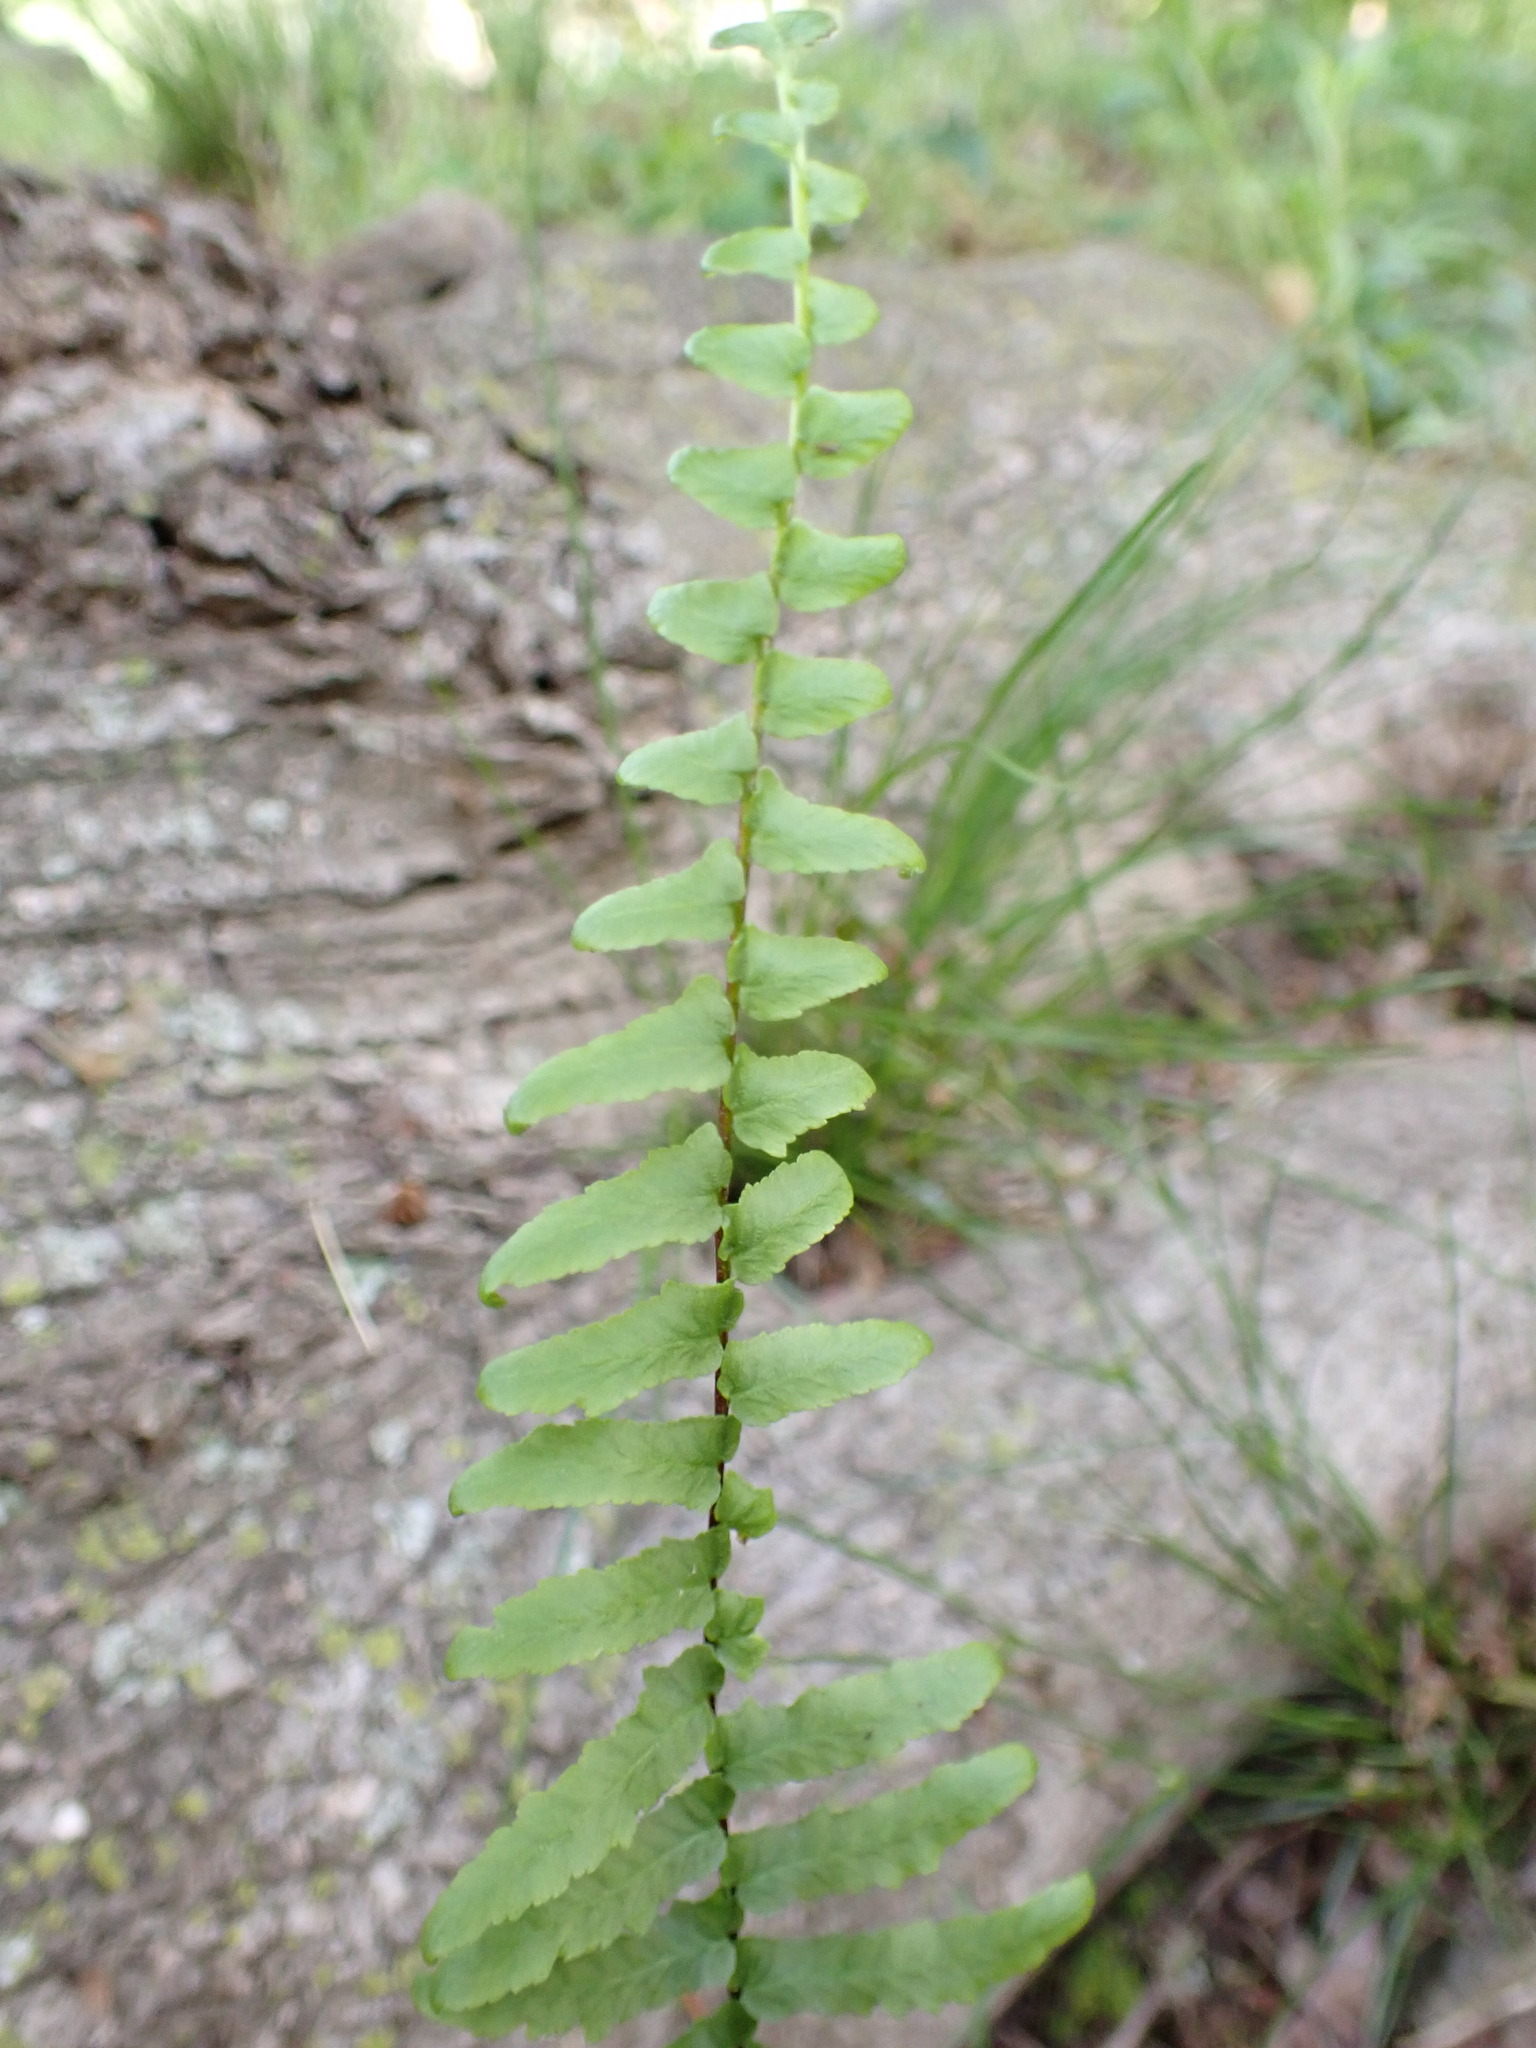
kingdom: Plantae
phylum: Tracheophyta
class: Polypodiopsida
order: Polypodiales
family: Aspleniaceae
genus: Asplenium
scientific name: Asplenium platyneuron
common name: Ebony spleenwort
